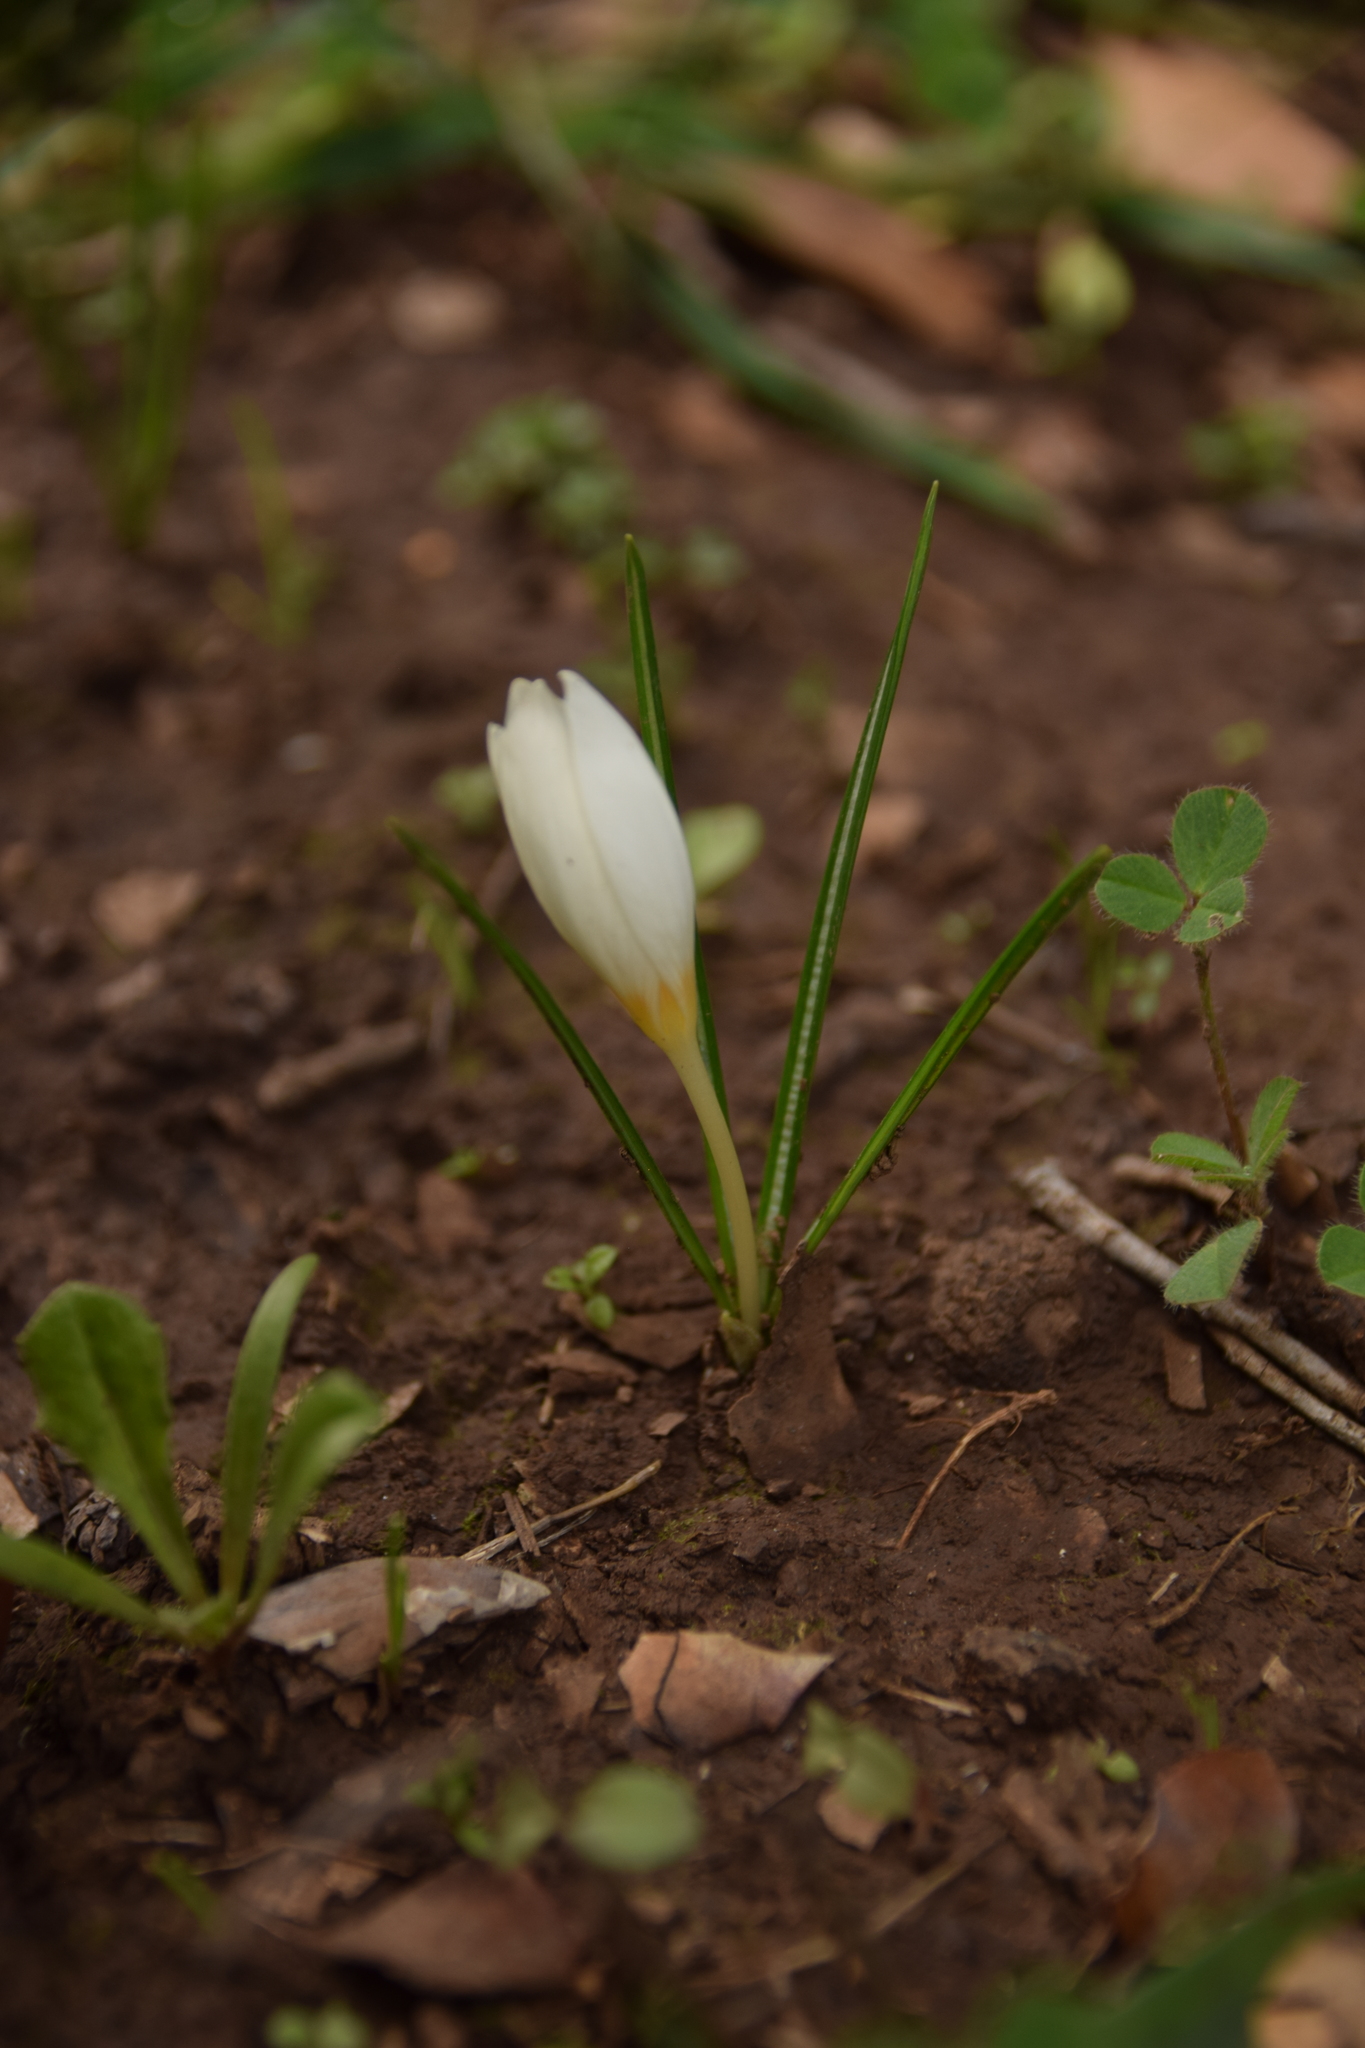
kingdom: Plantae
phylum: Tracheophyta
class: Liliopsida
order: Asparagales
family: Iridaceae
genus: Crocus
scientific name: Crocus hyemalis
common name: Winter crocus
